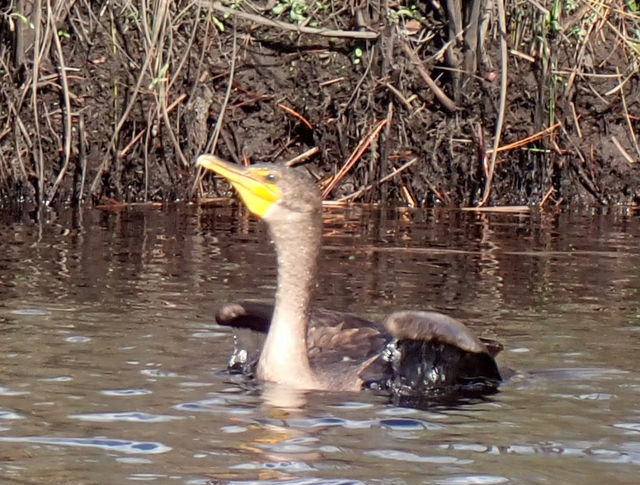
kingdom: Animalia
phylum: Chordata
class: Aves
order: Suliformes
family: Phalacrocoracidae
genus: Phalacrocorax
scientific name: Phalacrocorax auritus
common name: Double-crested cormorant
